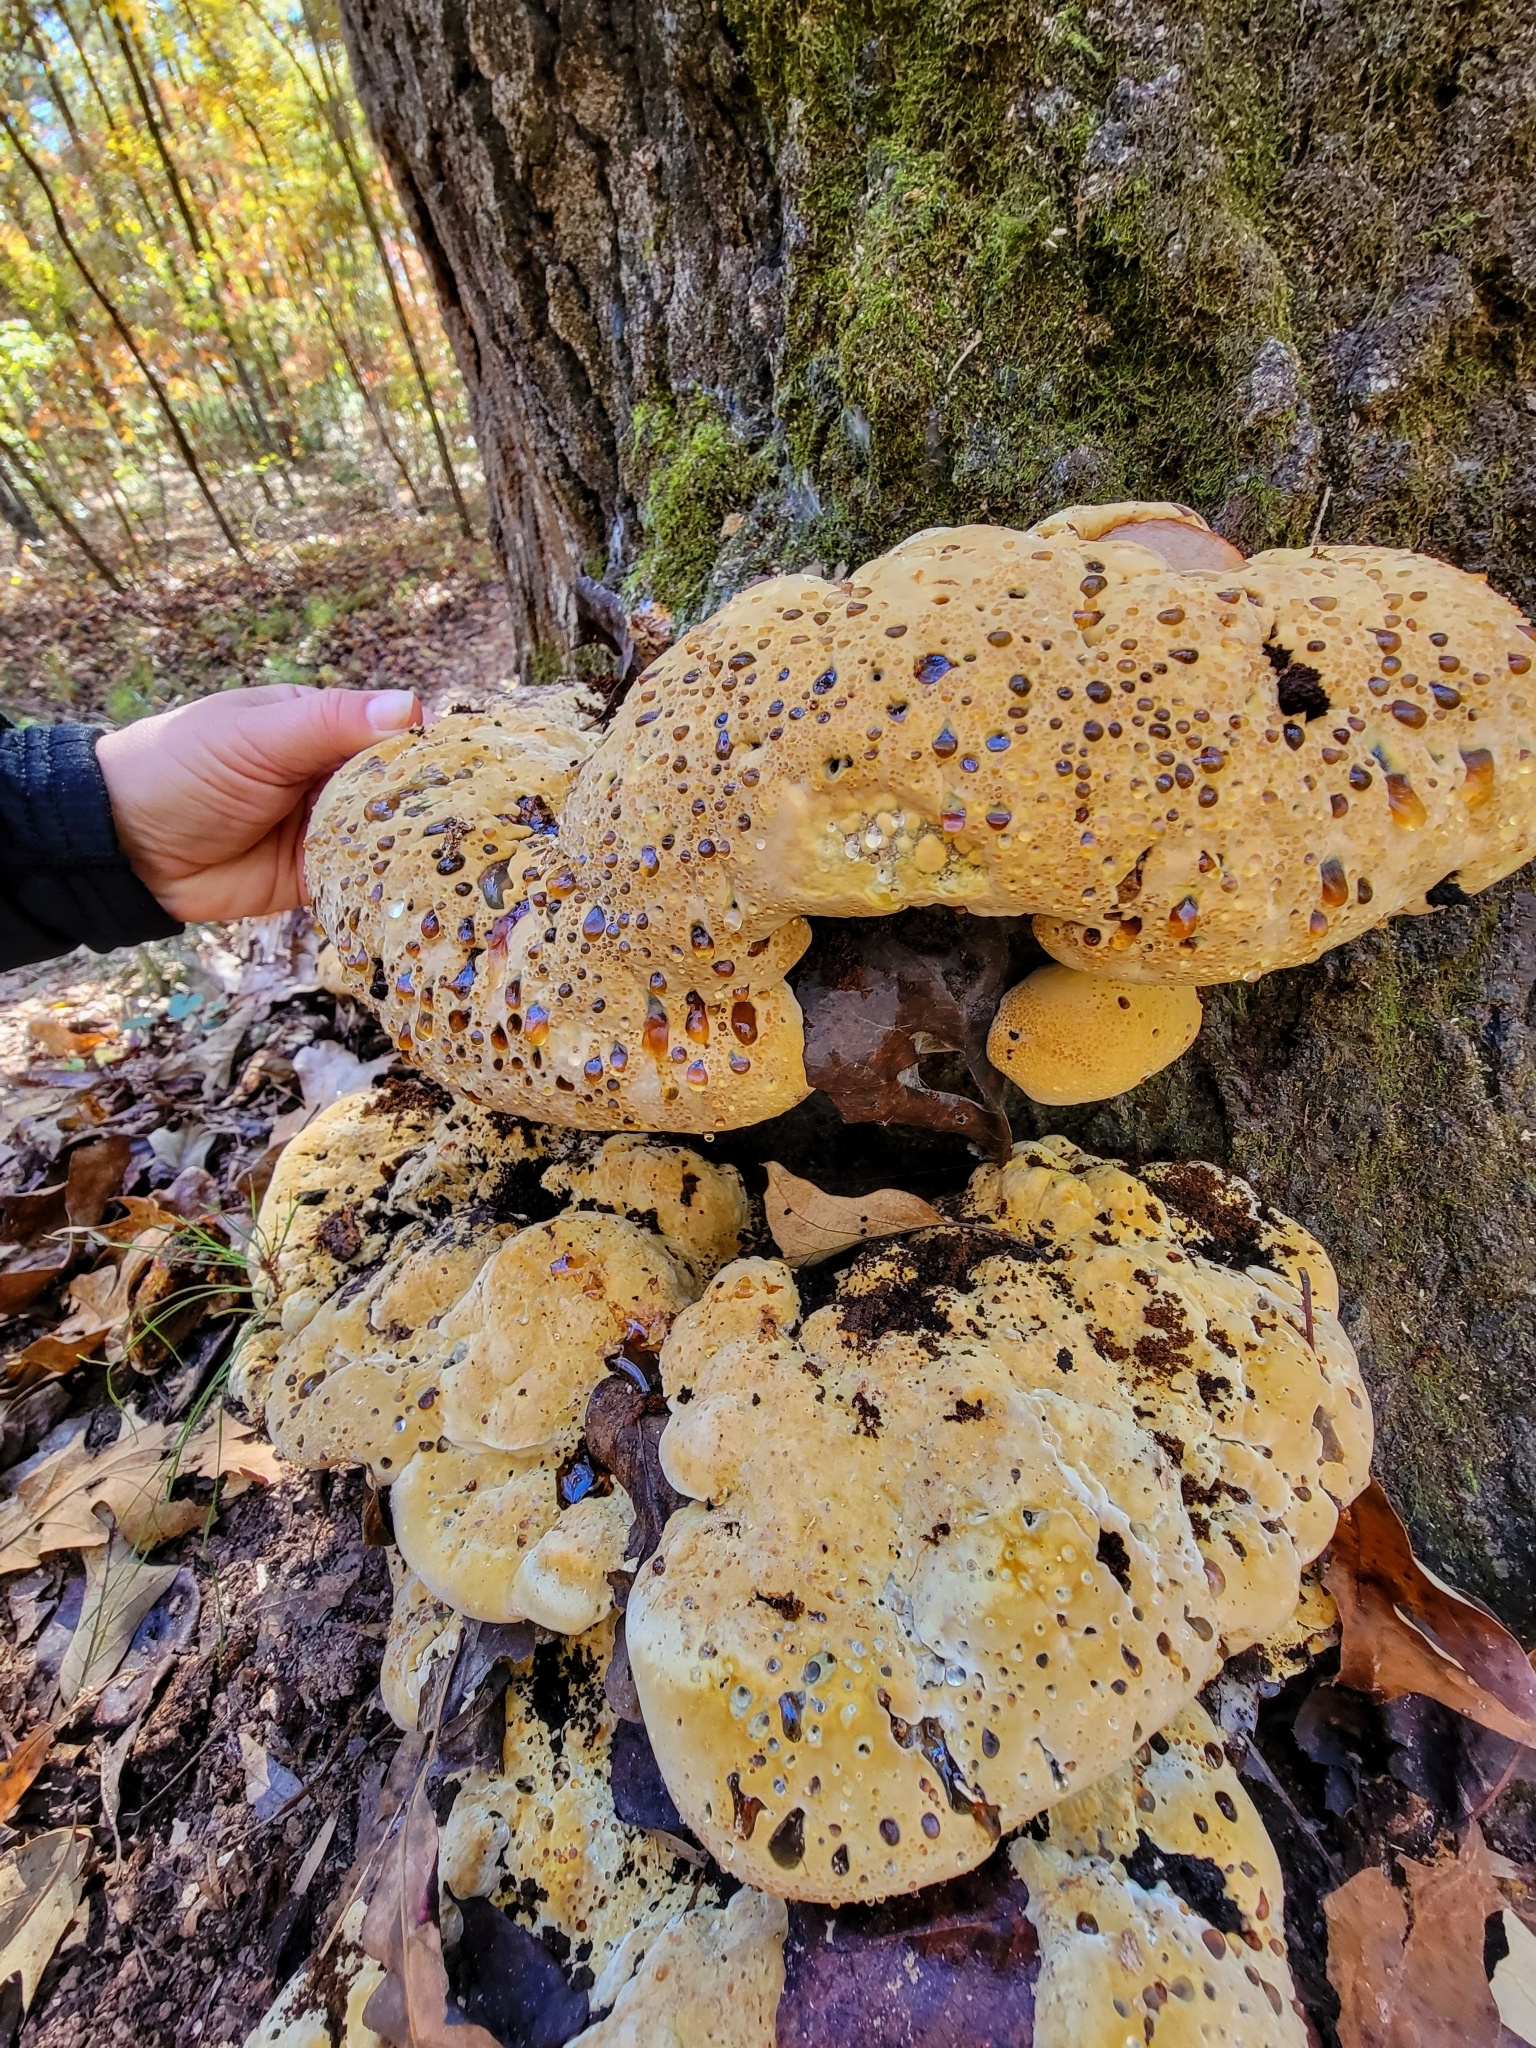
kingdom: Fungi
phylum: Basidiomycota
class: Agaricomycetes
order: Hymenochaetales
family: Hymenochaetaceae
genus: Pseudoinonotus
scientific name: Pseudoinonotus dryadeus
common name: Oak bracket
